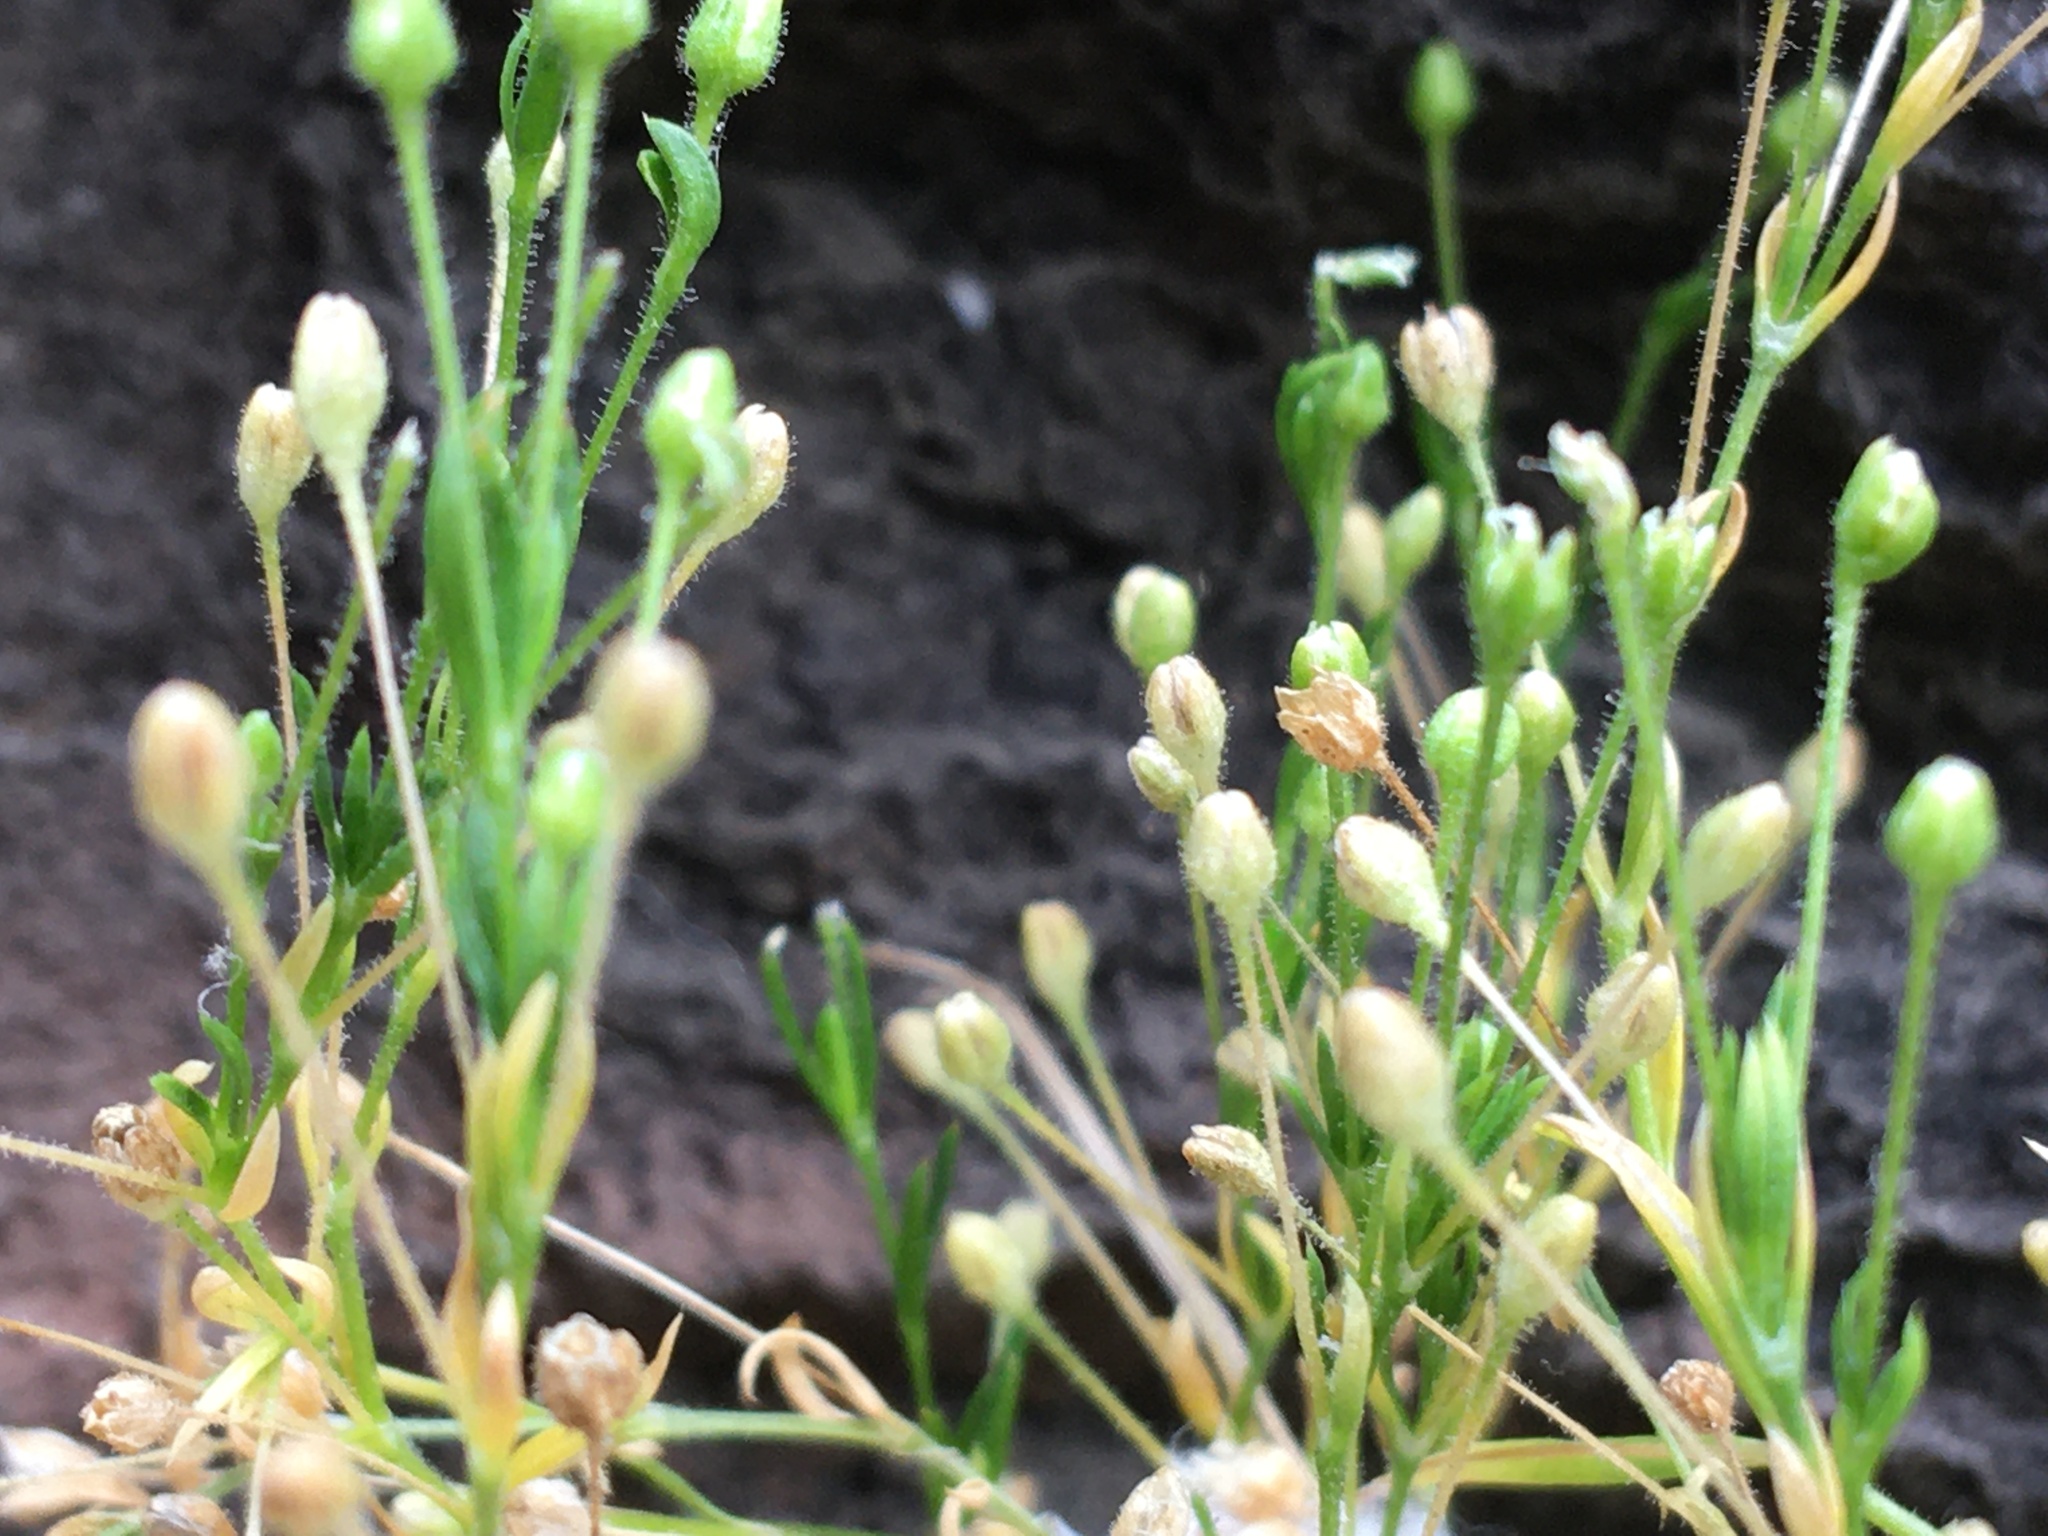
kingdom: Plantae
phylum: Tracheophyta
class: Magnoliopsida
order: Caryophyllales
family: Caryophyllaceae
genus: Sagina
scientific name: Sagina japonica
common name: Japanese pearlwort
